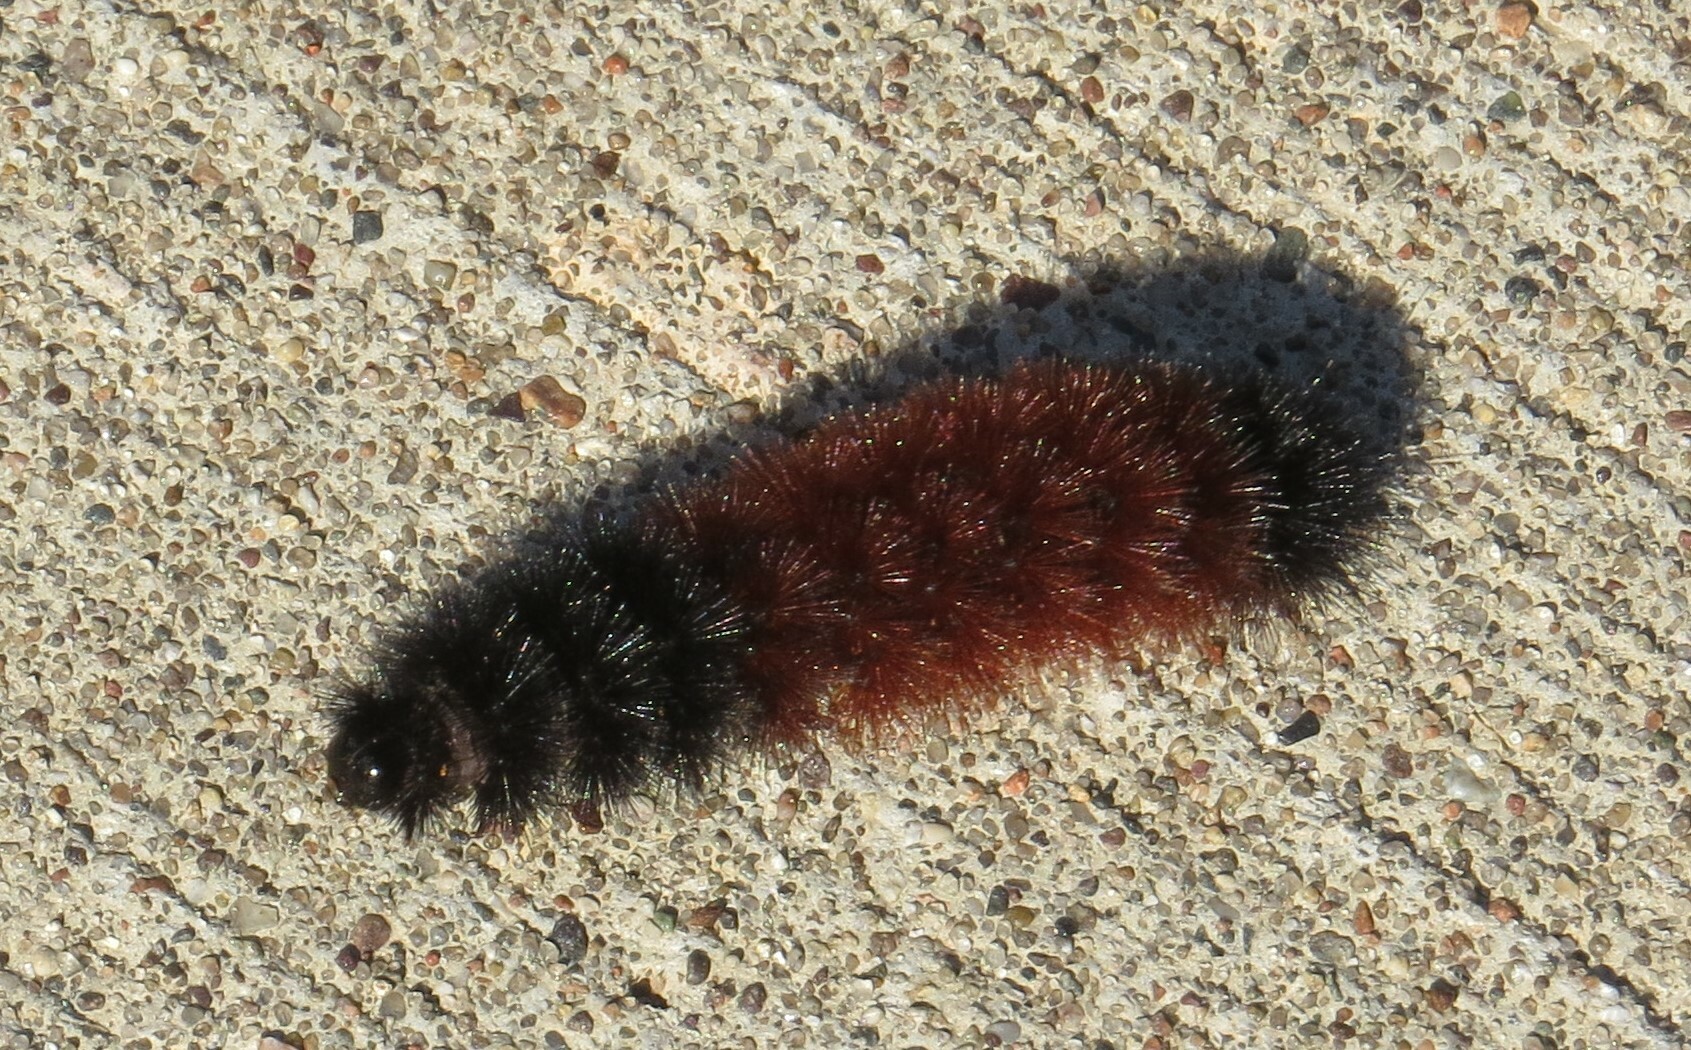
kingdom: Animalia
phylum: Arthropoda
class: Insecta
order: Lepidoptera
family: Erebidae
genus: Pyrrharctia
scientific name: Pyrrharctia isabella
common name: Isabella tiger moth
